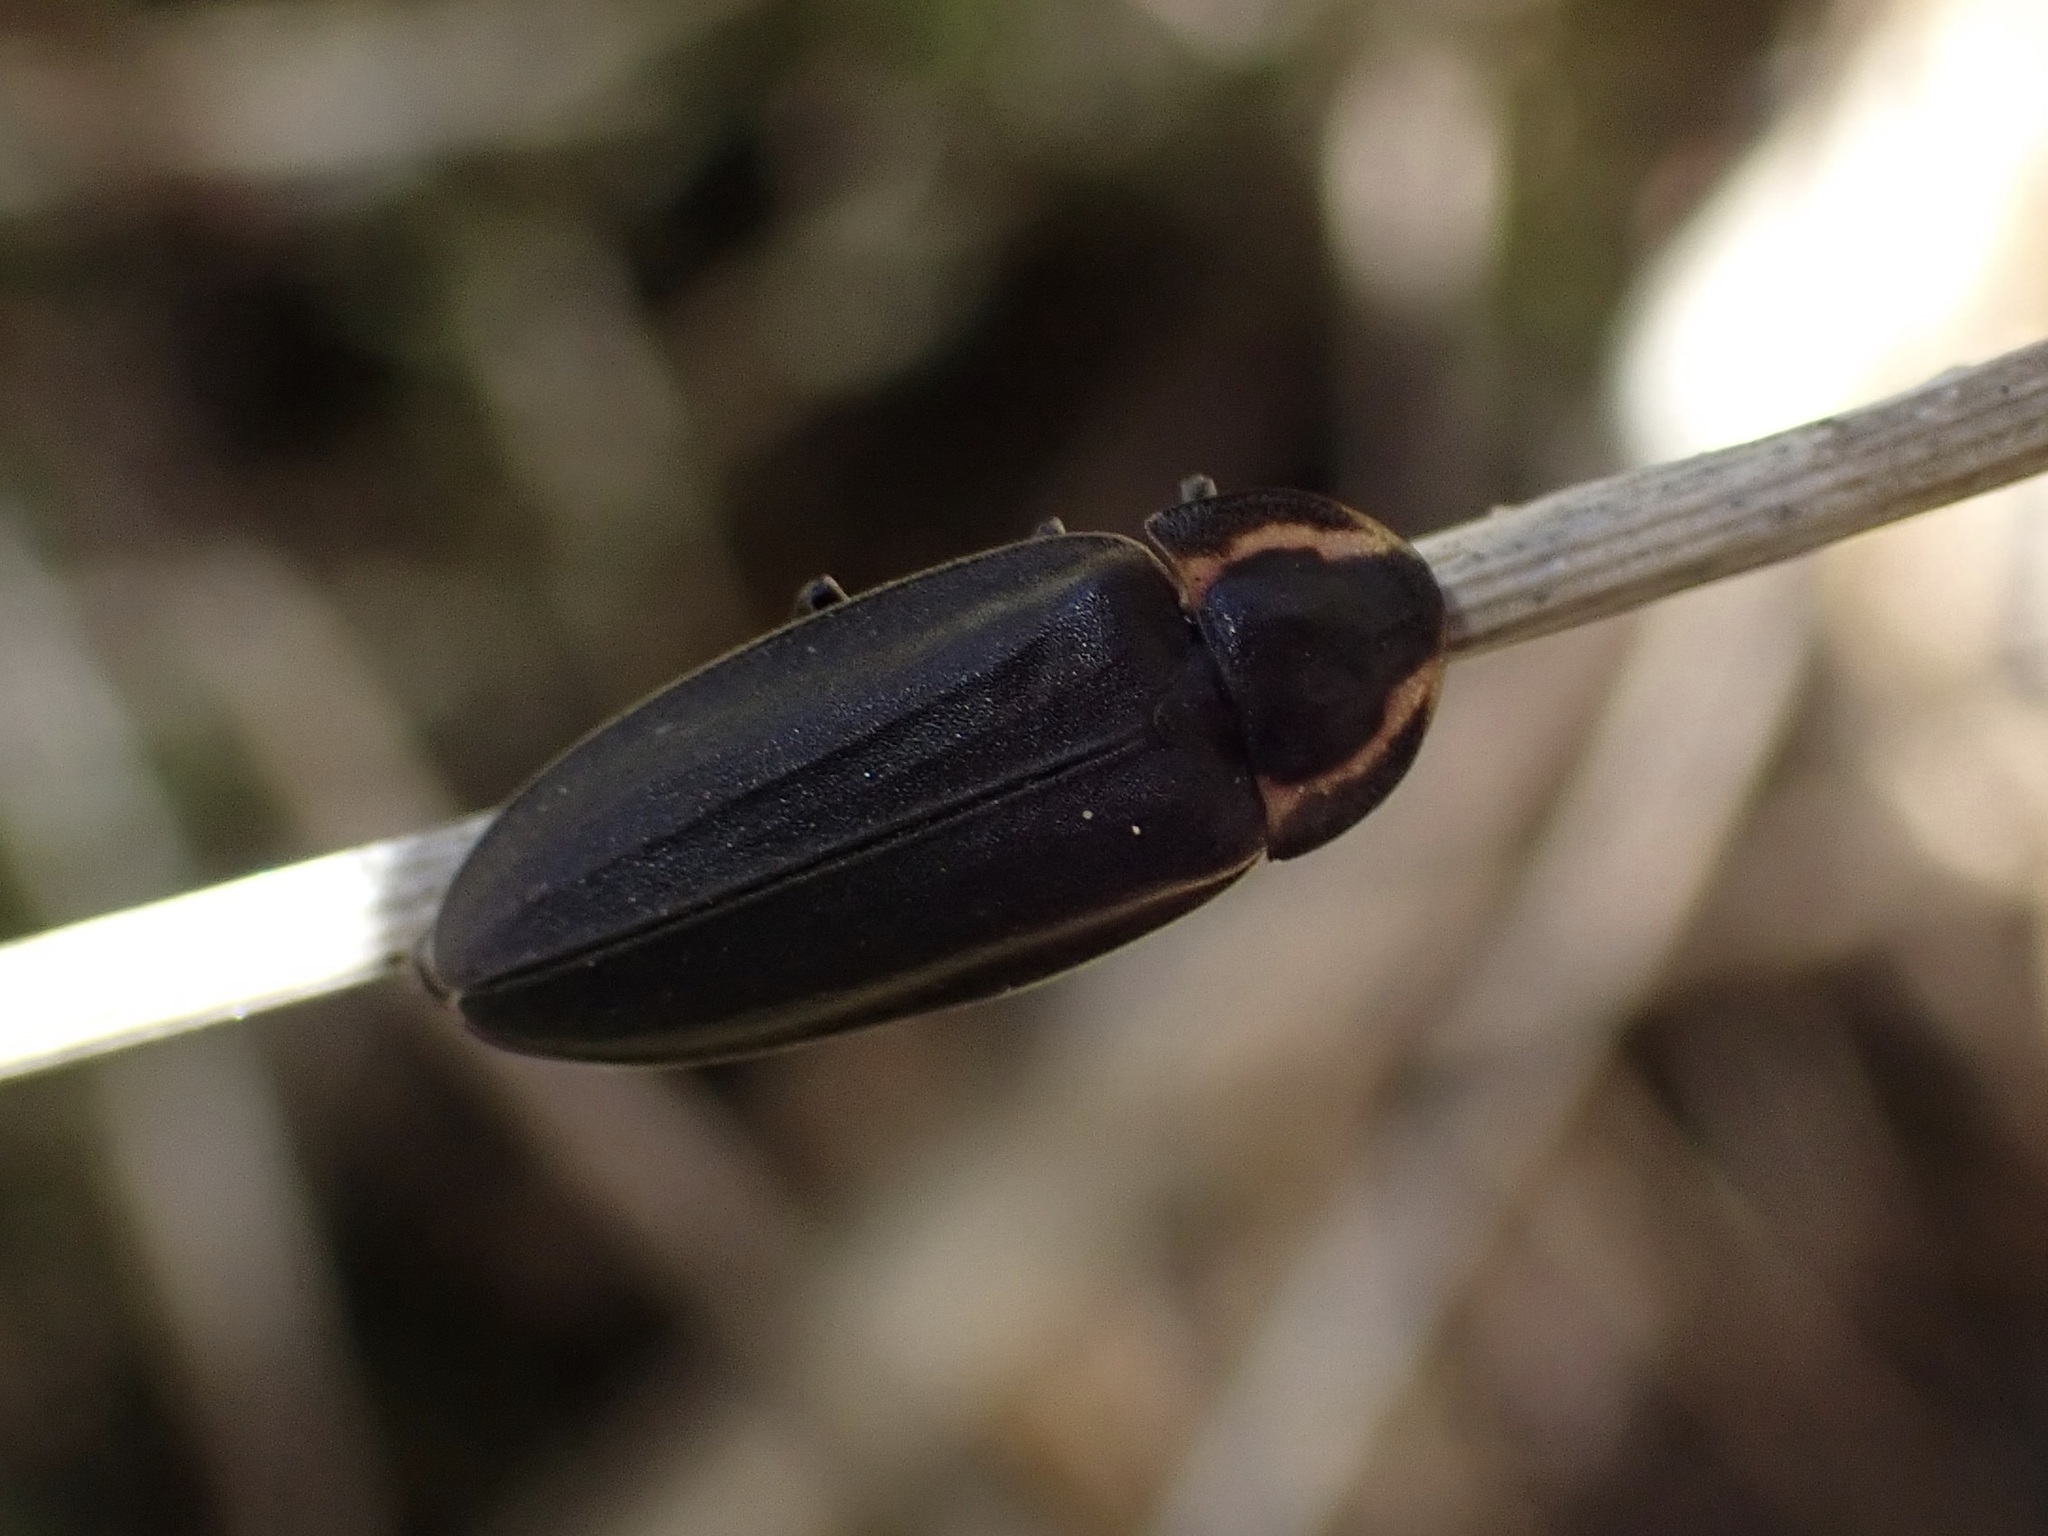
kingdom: Animalia
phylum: Arthropoda
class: Insecta
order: Coleoptera
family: Lampyridae
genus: Photinus
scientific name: Photinus corrusca
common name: Winter firefly
